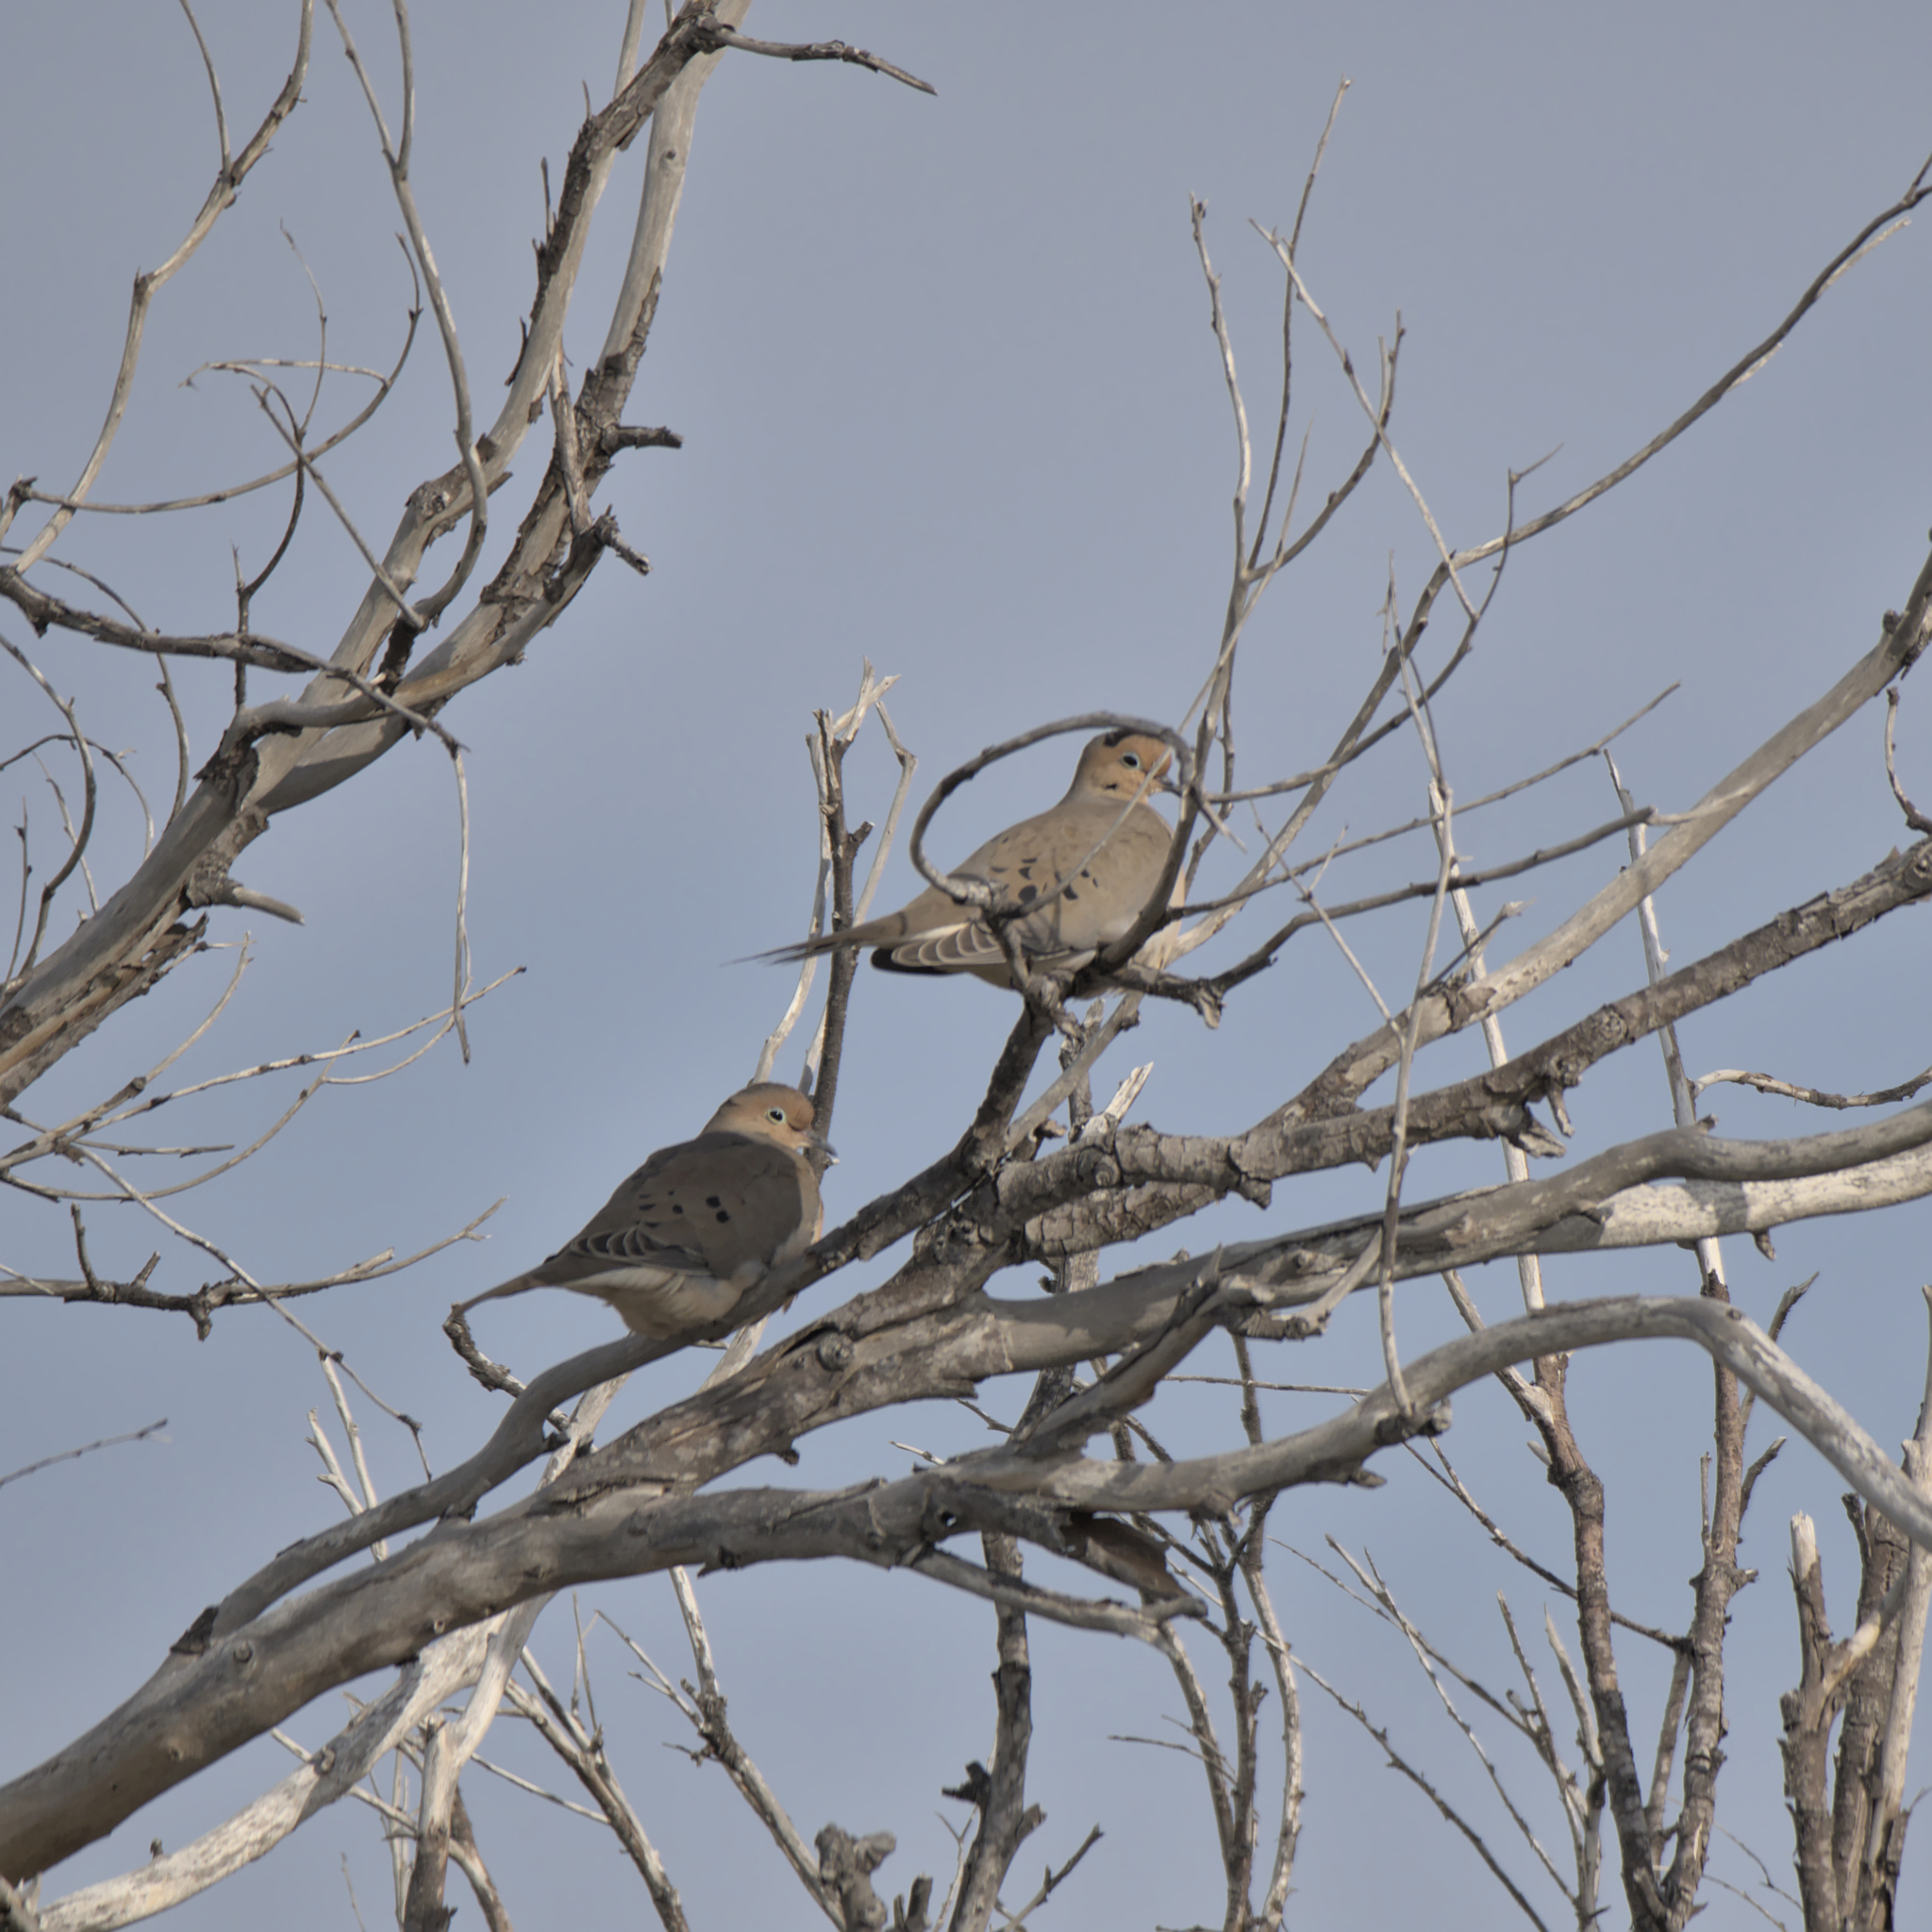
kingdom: Animalia
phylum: Chordata
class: Aves
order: Columbiformes
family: Columbidae
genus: Zenaida
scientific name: Zenaida macroura
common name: Mourning dove
